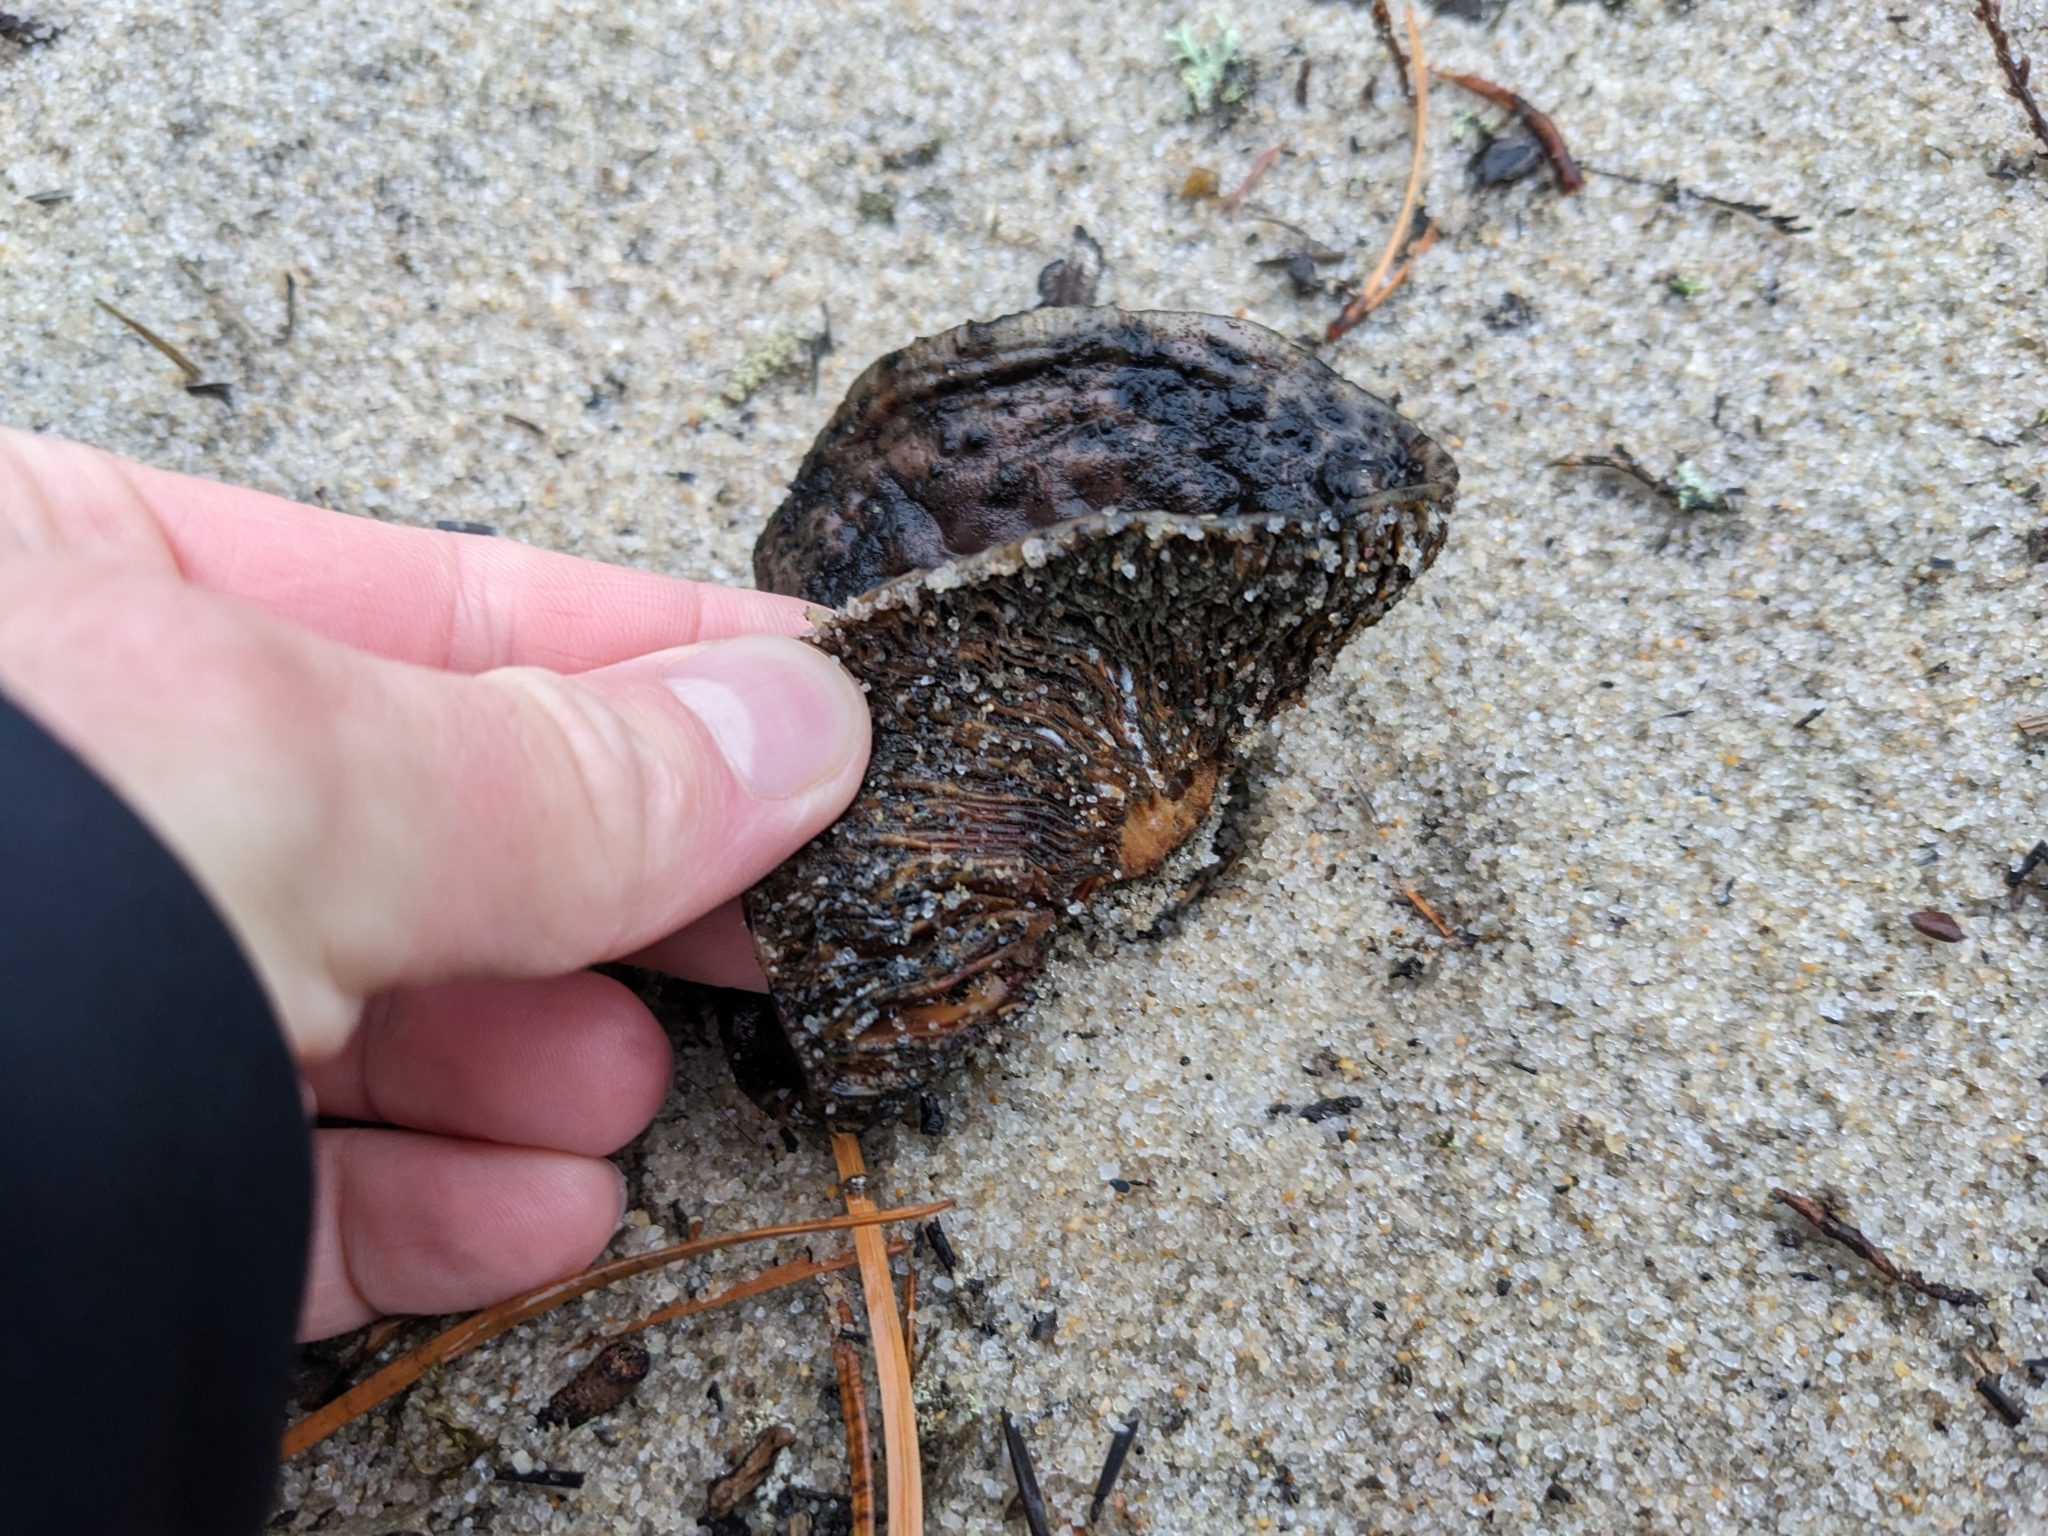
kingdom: Fungi
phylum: Basidiomycota
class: Agaricomycetes
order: Agaricales
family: Hydnangiaceae
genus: Laccaria
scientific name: Laccaria trullissata
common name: Sandy laccaria
